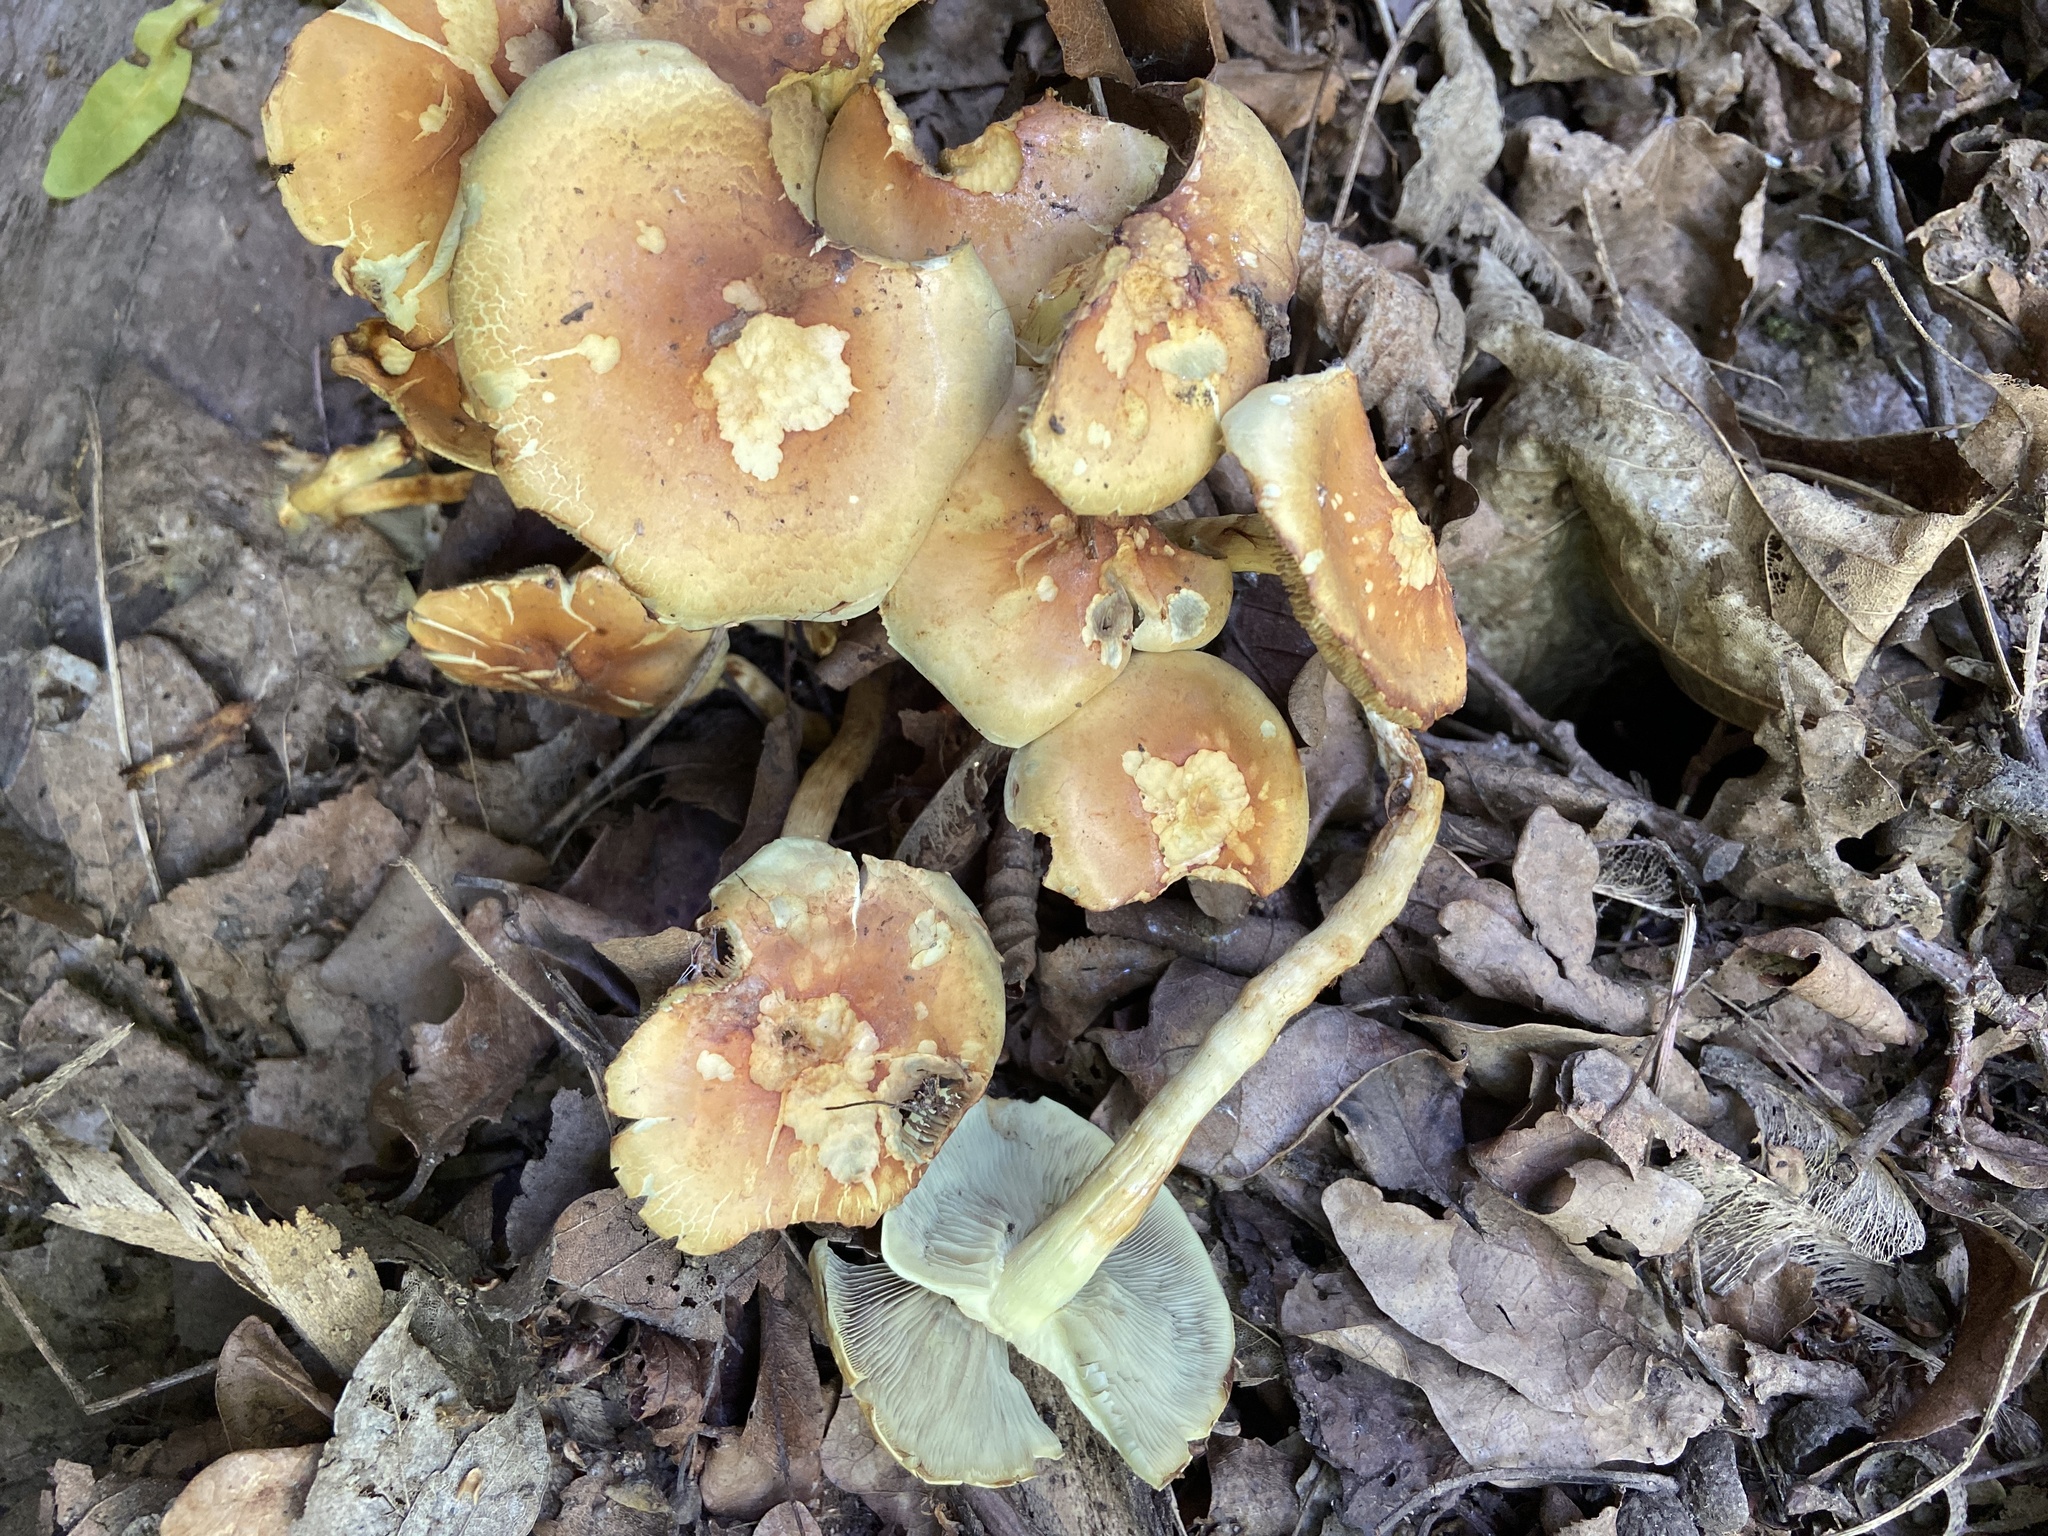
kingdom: Fungi
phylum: Basidiomycota
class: Agaricomycetes
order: Agaricales
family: Strophariaceae
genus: Hypholoma
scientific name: Hypholoma fasciculare
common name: Sulphur tuft
